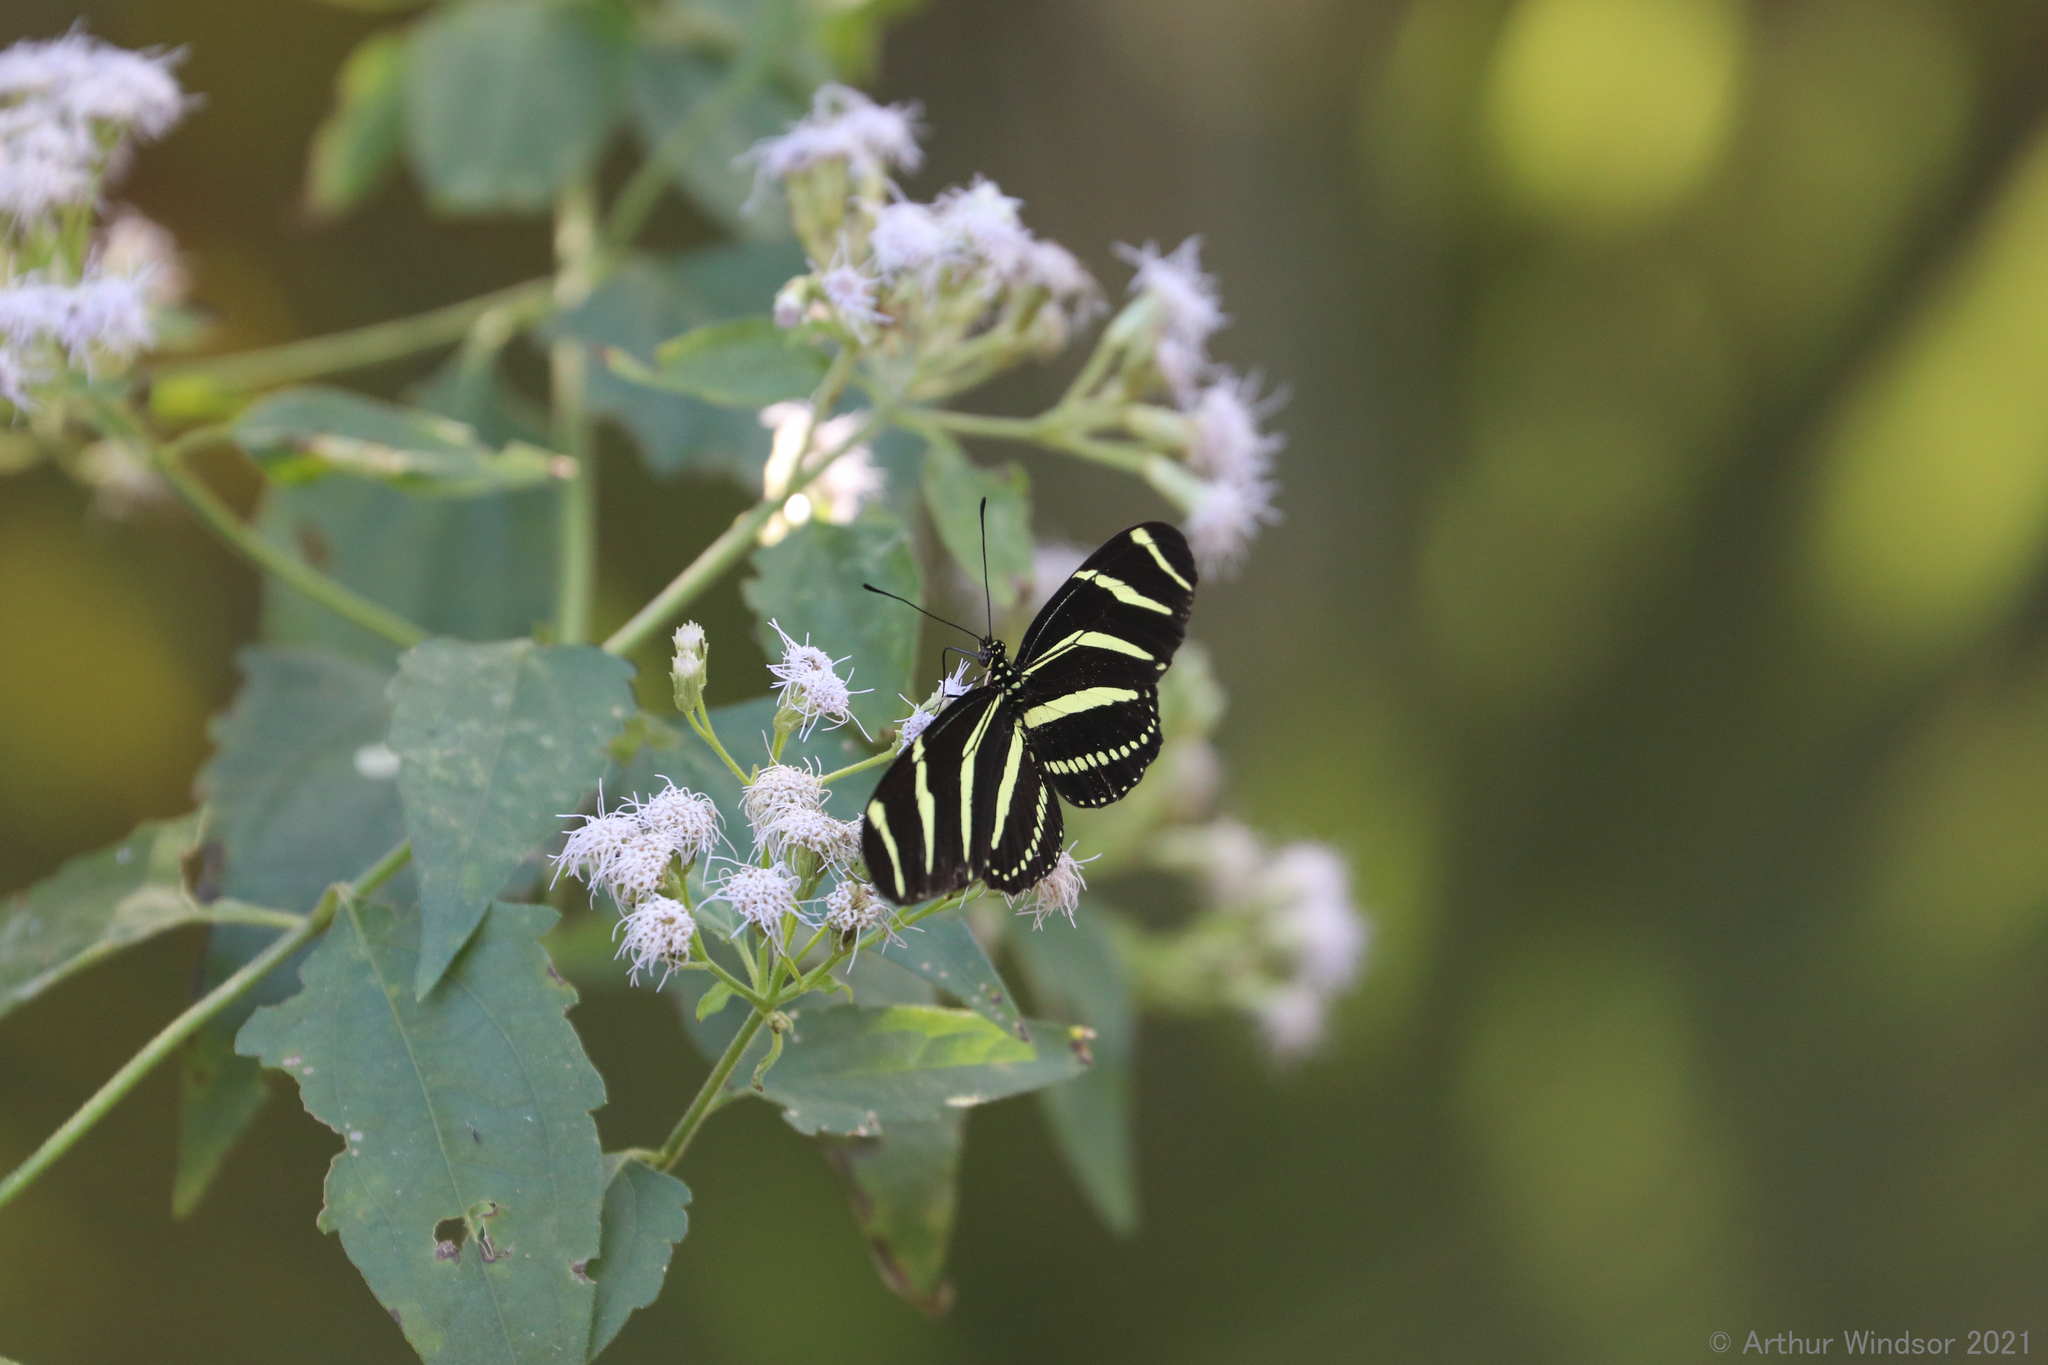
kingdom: Animalia
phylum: Arthropoda
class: Insecta
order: Lepidoptera
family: Nymphalidae
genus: Heliconius
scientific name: Heliconius charithonia
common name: Zebra long wing
